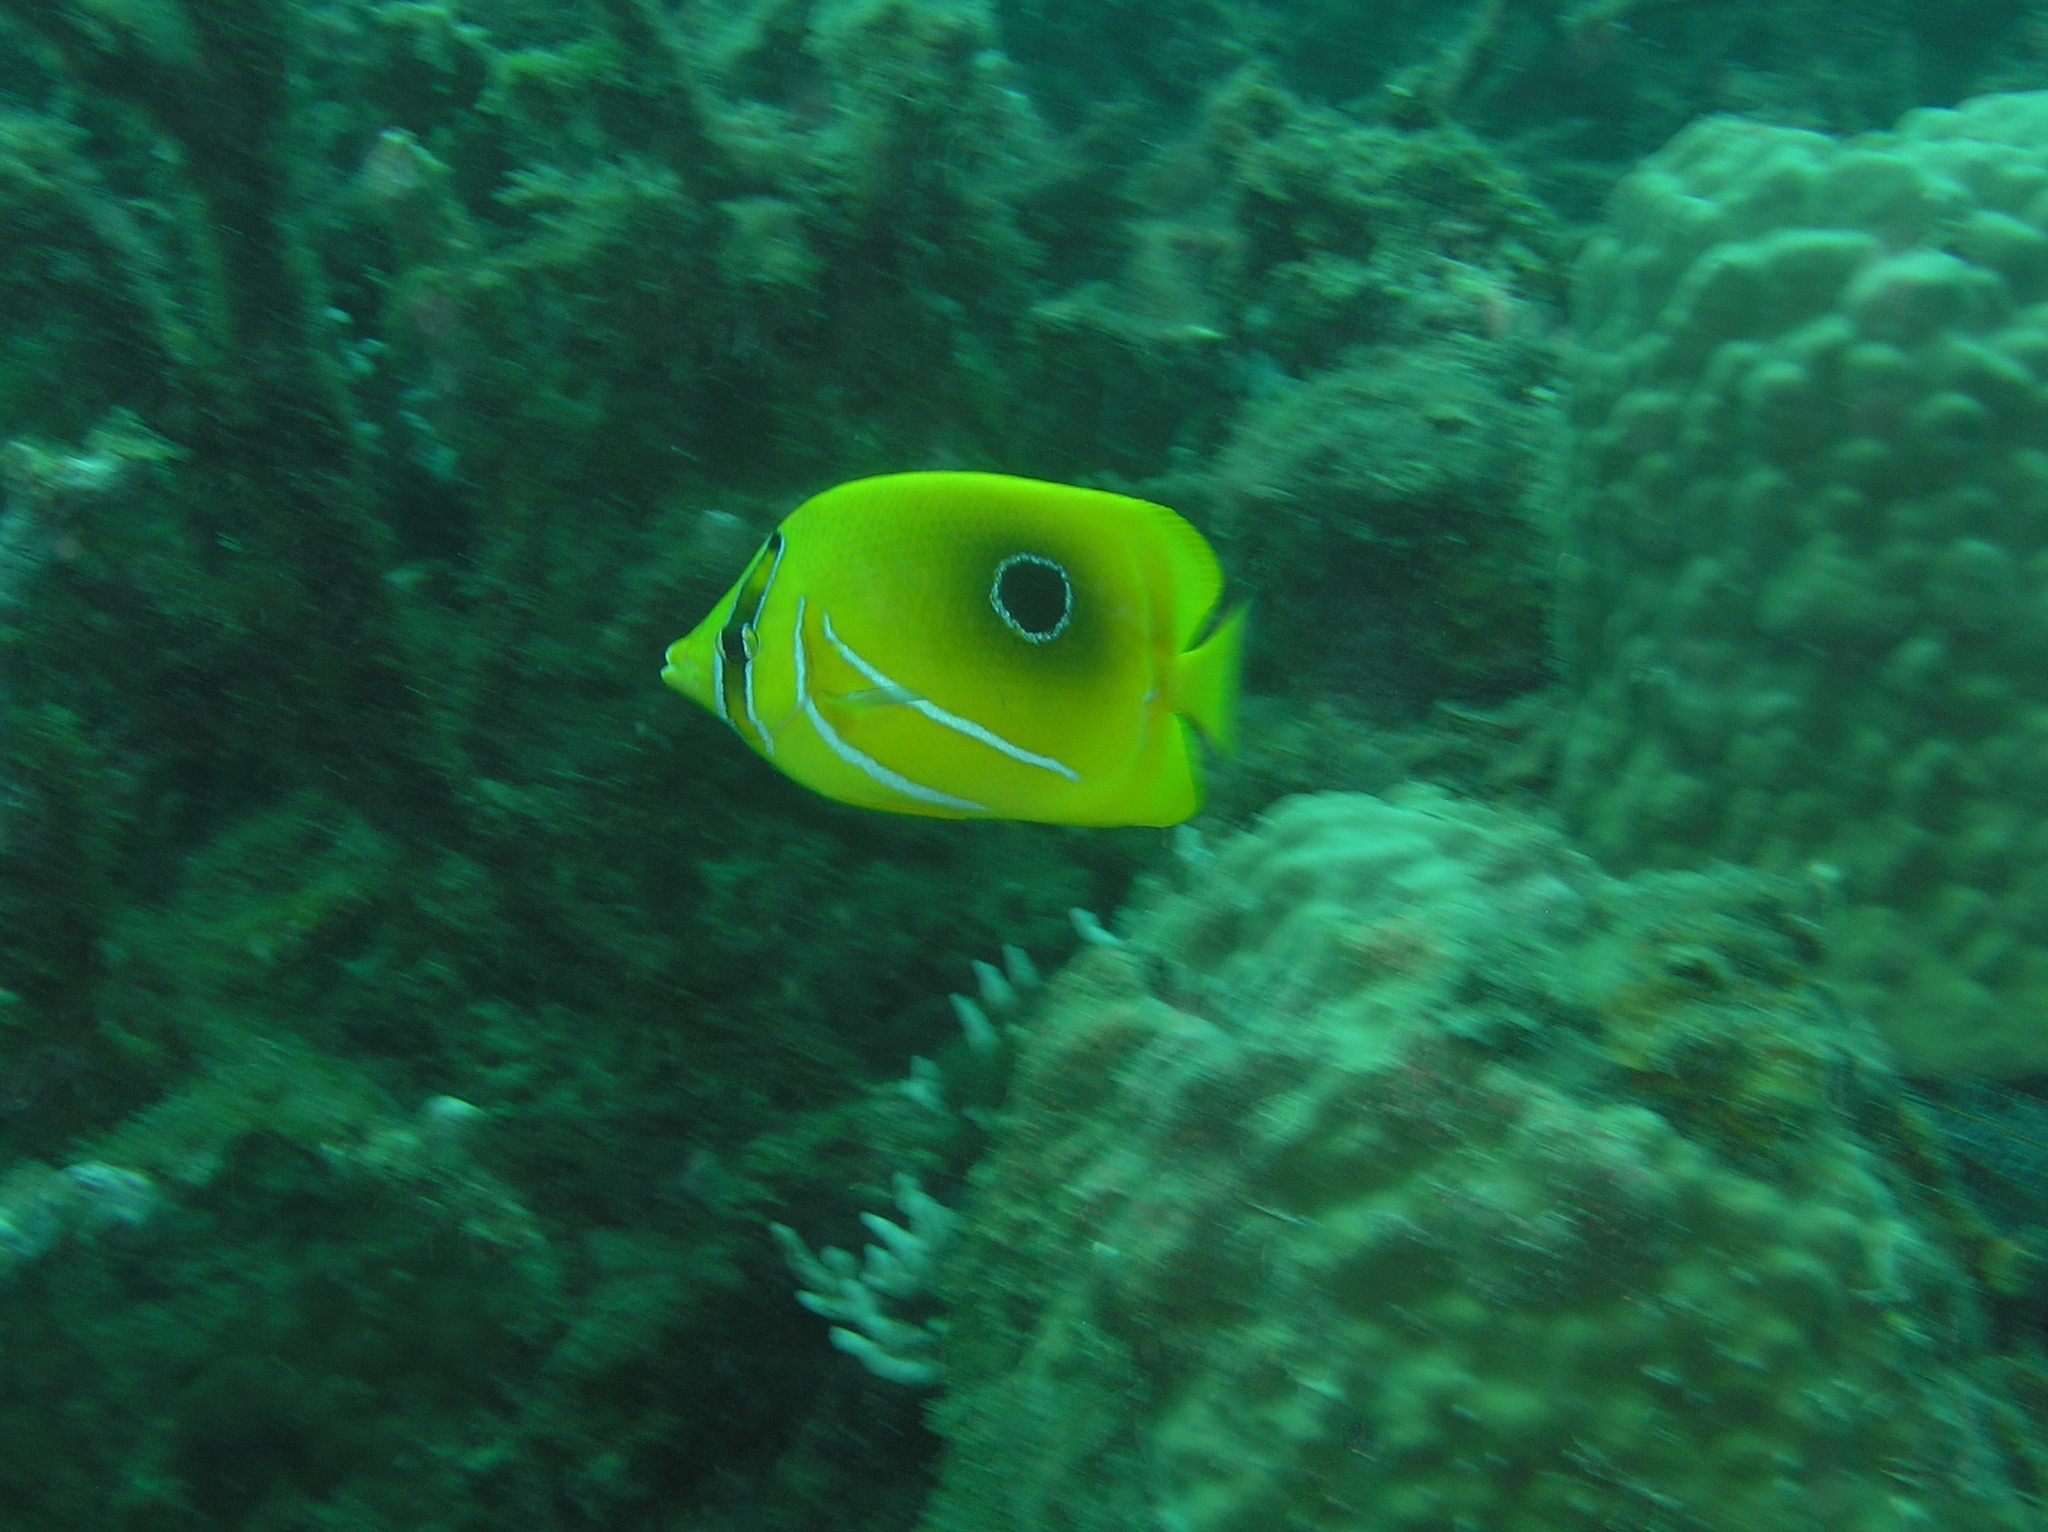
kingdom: Animalia
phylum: Chordata
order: Perciformes
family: Chaetodontidae
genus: Chaetodon
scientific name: Chaetodon bennetti
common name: Bennett's butterflyfish
